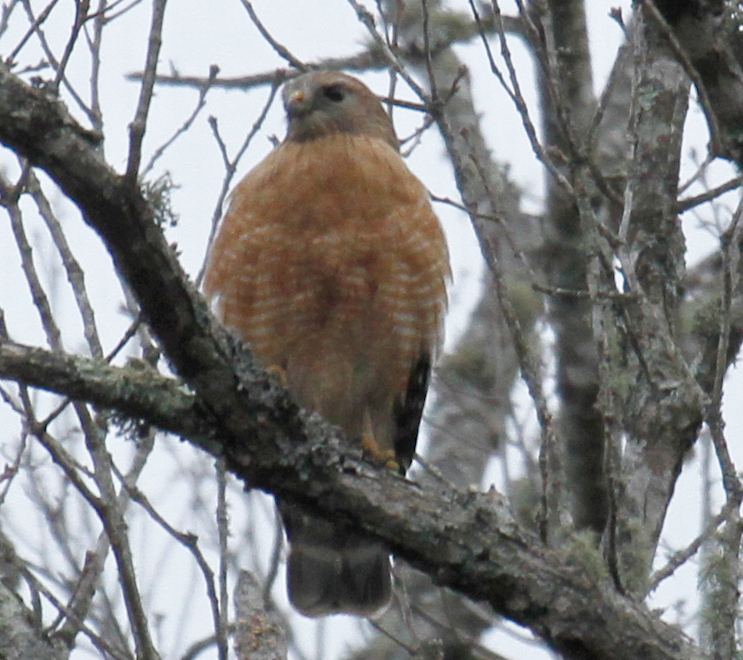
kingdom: Animalia
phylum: Chordata
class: Aves
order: Accipitriformes
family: Accipitridae
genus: Buteo
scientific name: Buteo lineatus
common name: Red-shouldered hawk
